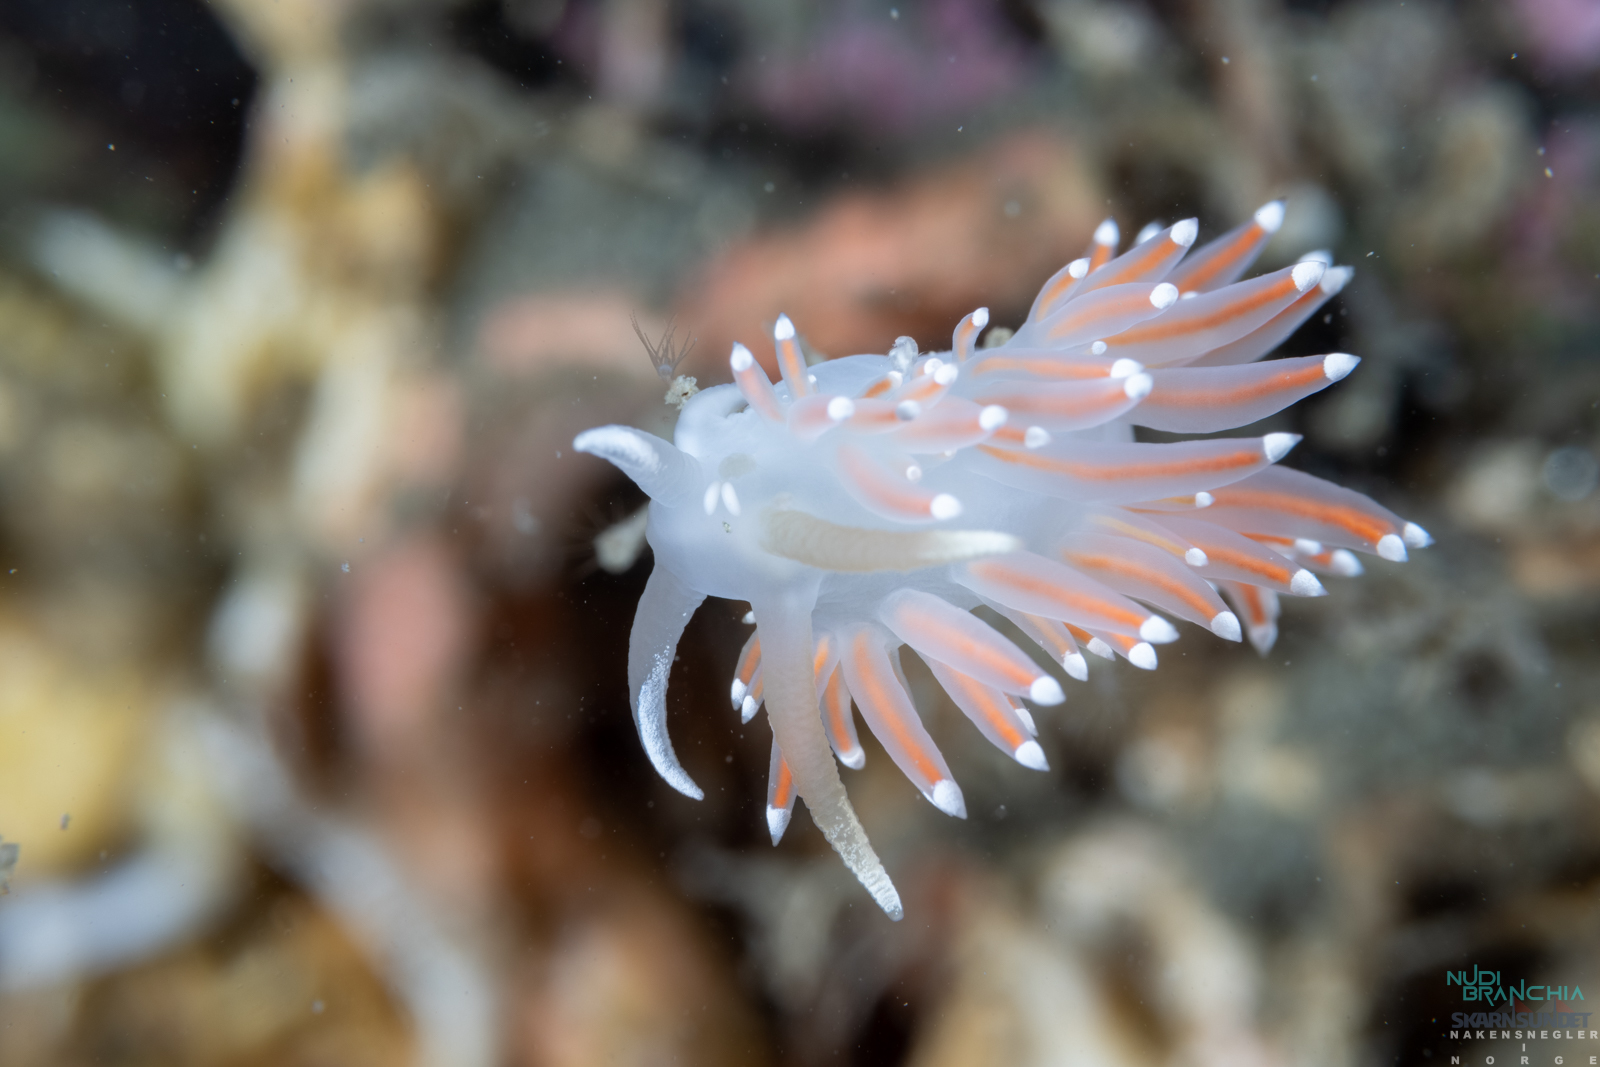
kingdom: Animalia
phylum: Mollusca
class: Gastropoda
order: Nudibranchia
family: Coryphellidae
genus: Coryphella
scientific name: Coryphella browni
